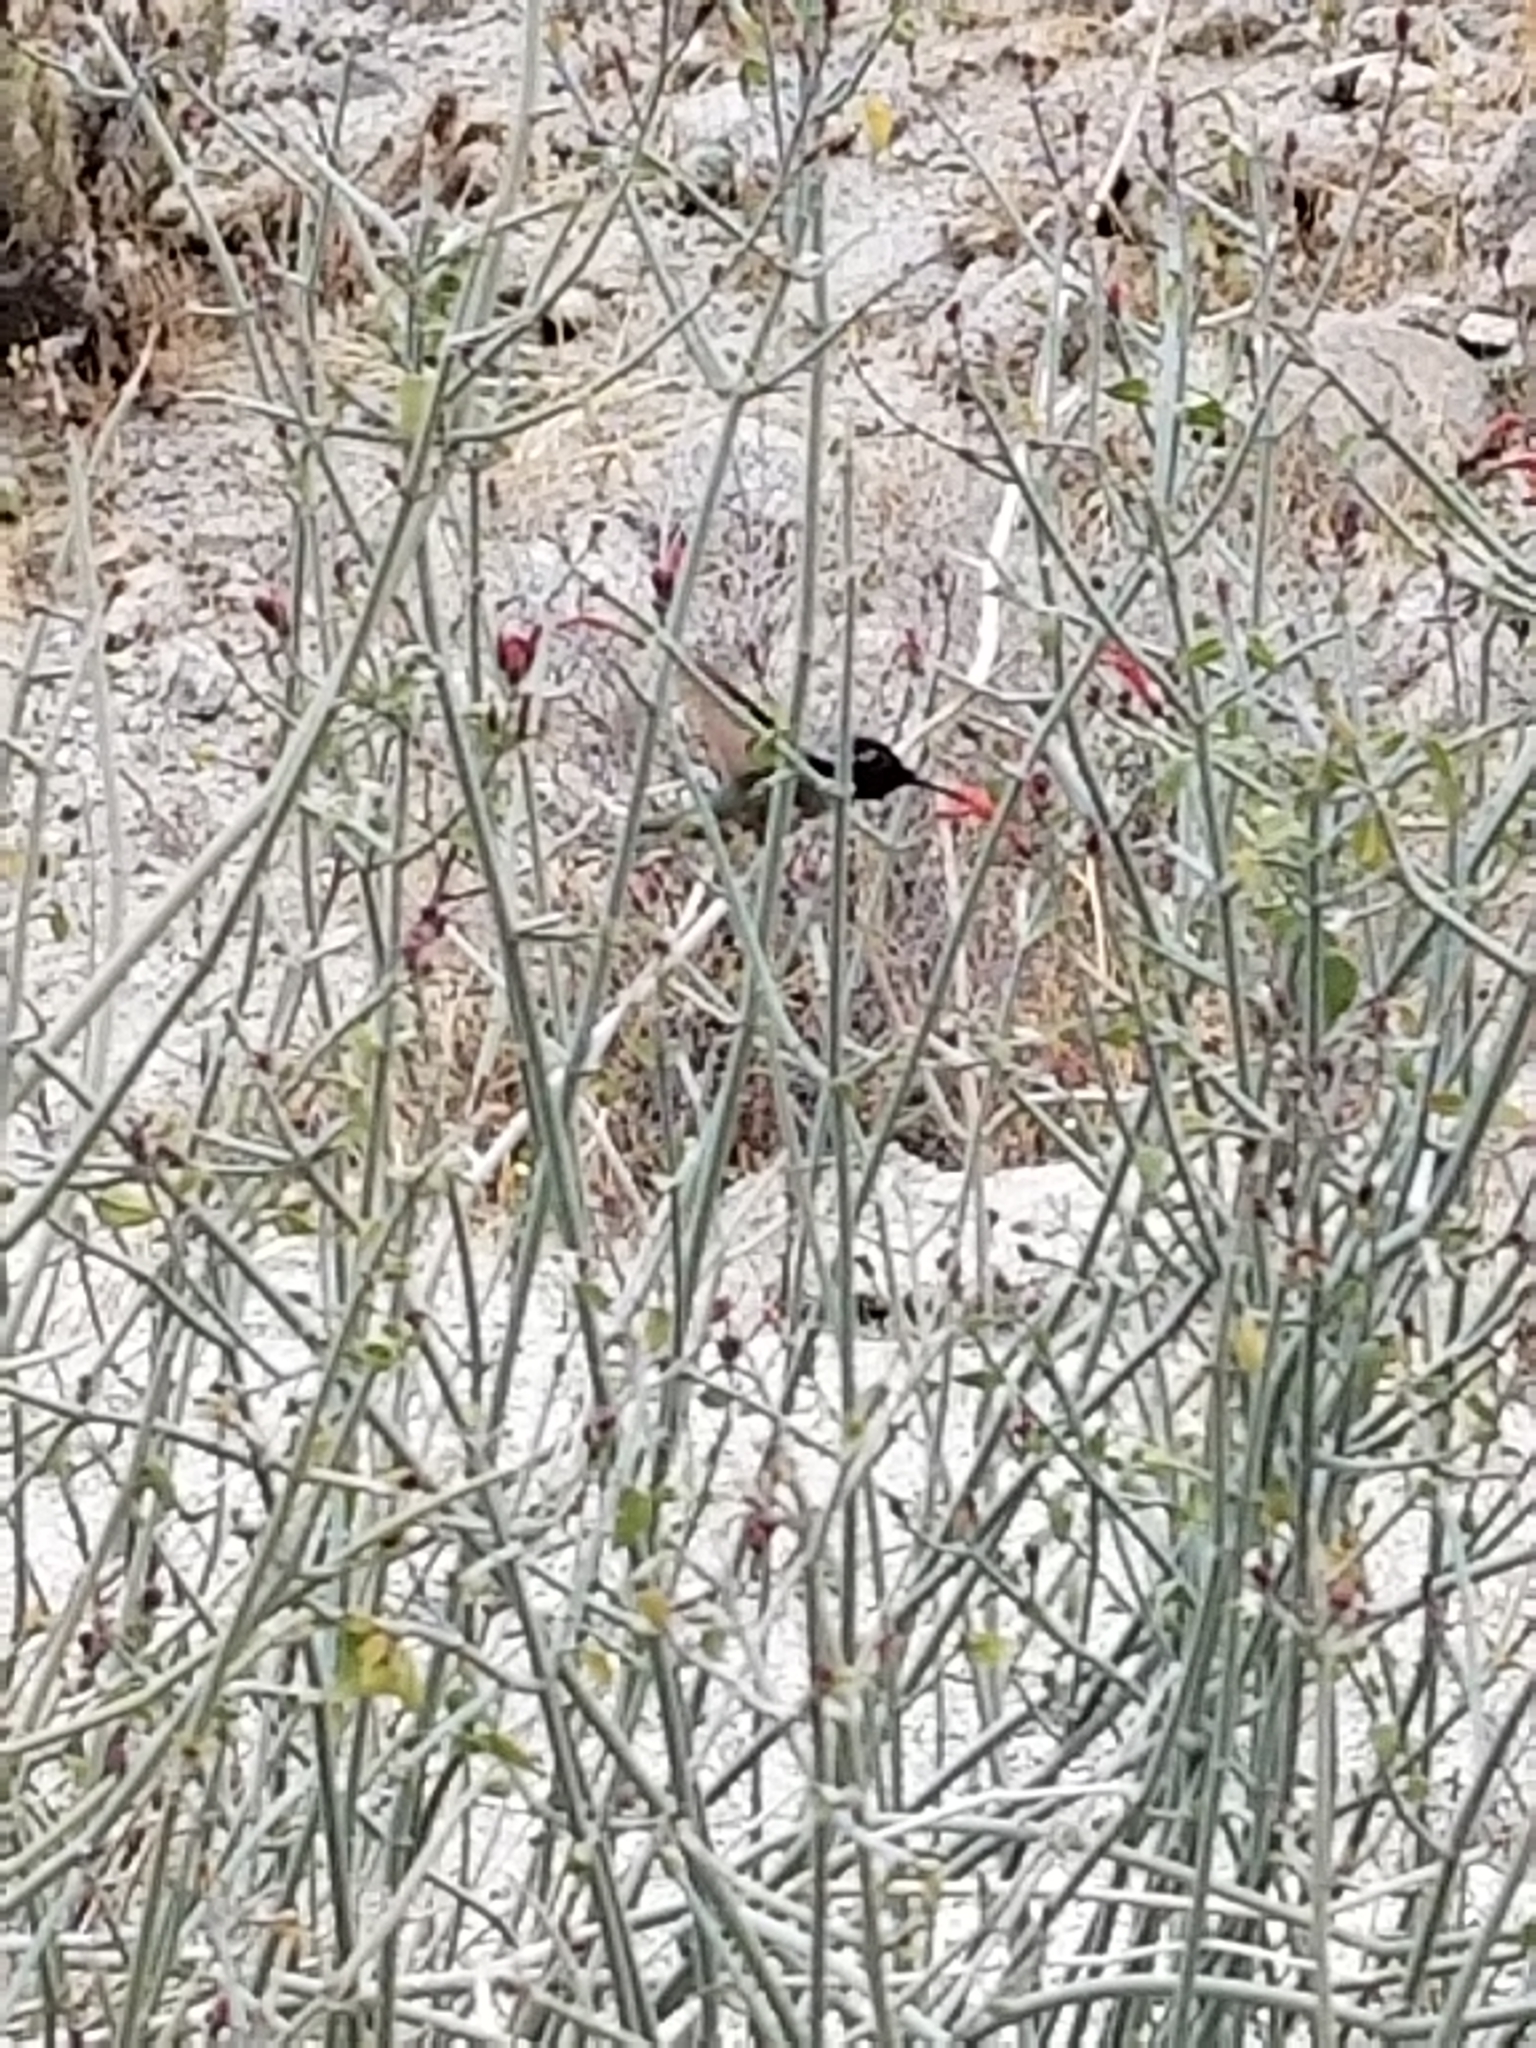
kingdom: Animalia
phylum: Chordata
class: Aves
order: Apodiformes
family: Trochilidae
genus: Calypte
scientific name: Calypte costae
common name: Costa's hummingbird
